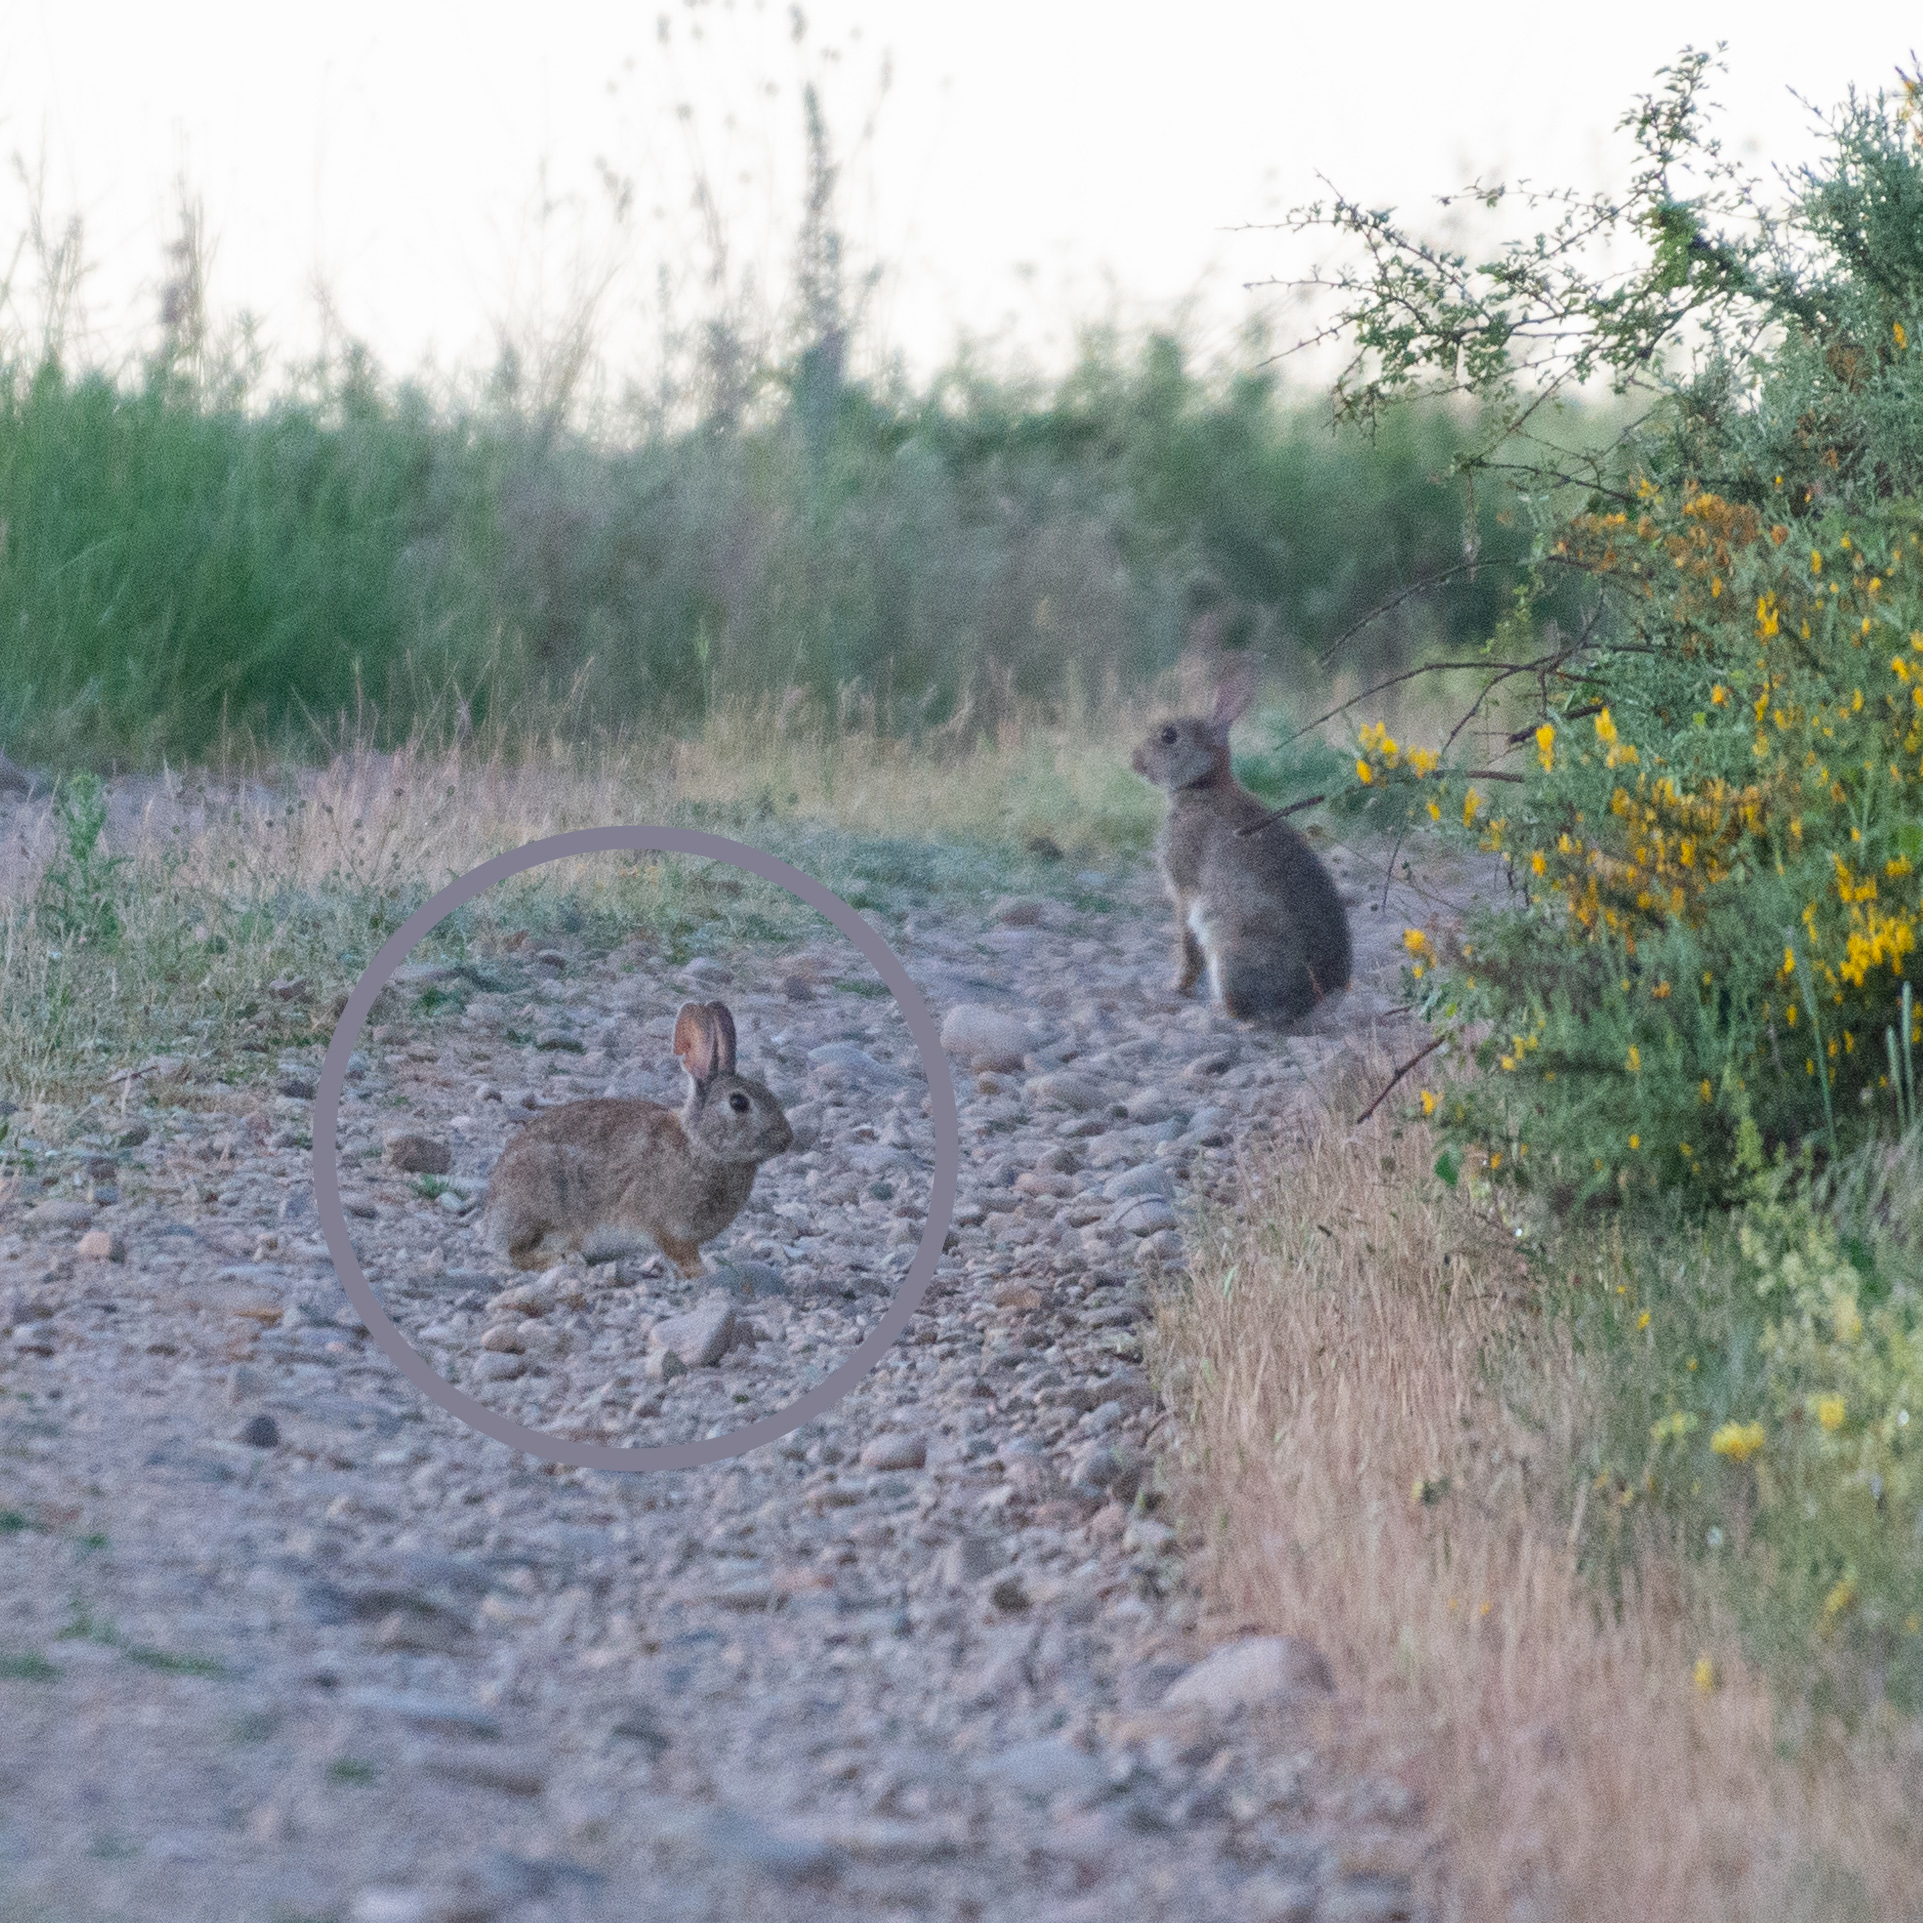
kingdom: Animalia
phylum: Chordata
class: Mammalia
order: Lagomorpha
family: Leporidae
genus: Oryctolagus
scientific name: Oryctolagus cuniculus
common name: European rabbit
